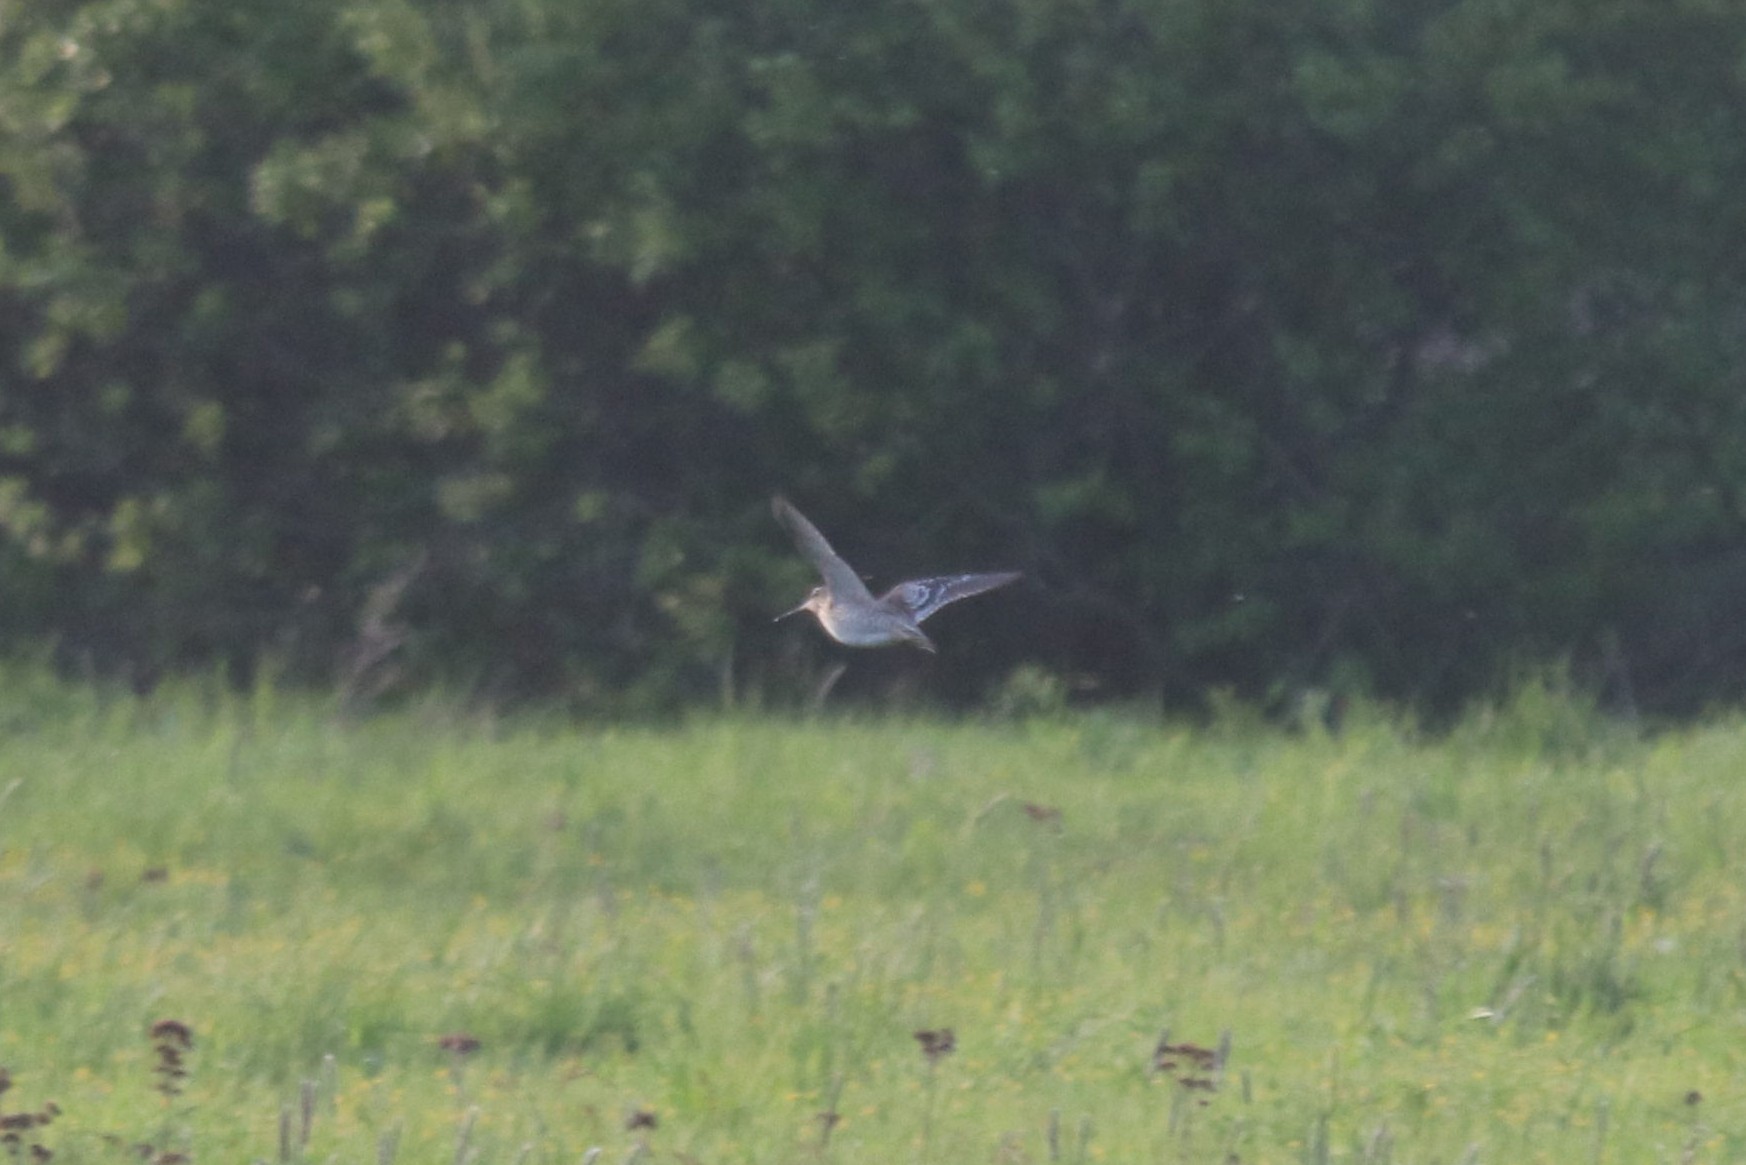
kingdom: Animalia
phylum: Chordata
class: Aves
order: Charadriiformes
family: Scolopacidae
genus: Gallinago
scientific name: Gallinago media
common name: Great snipe
